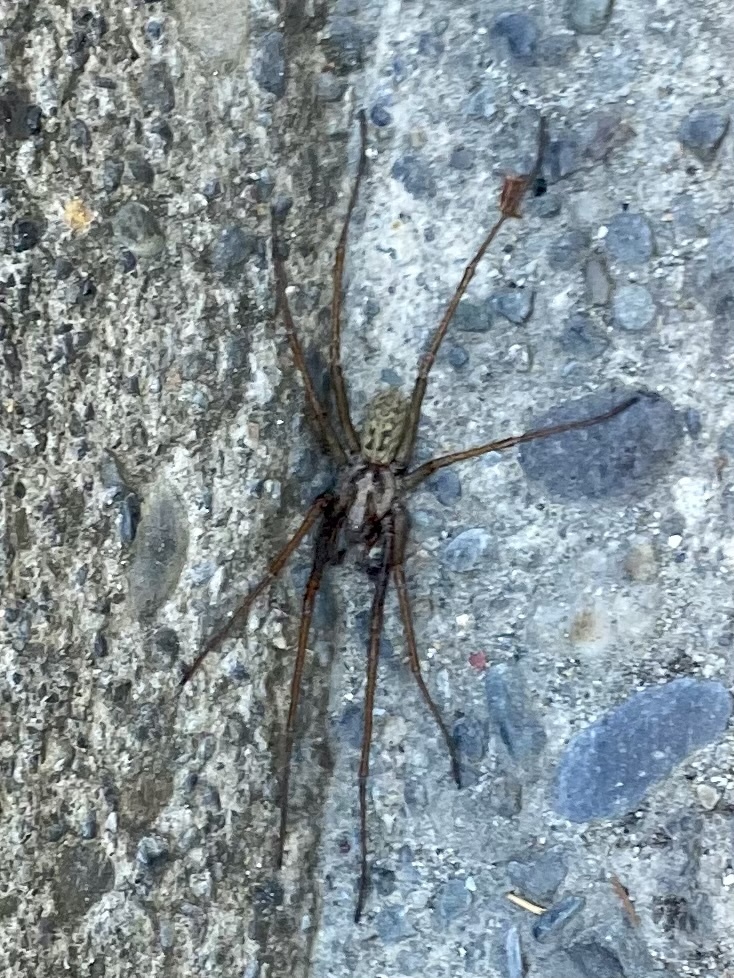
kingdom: Animalia
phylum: Arthropoda
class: Arachnida
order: Araneae
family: Agelenidae
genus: Eratigena
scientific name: Eratigena duellica
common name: Giant house spider
